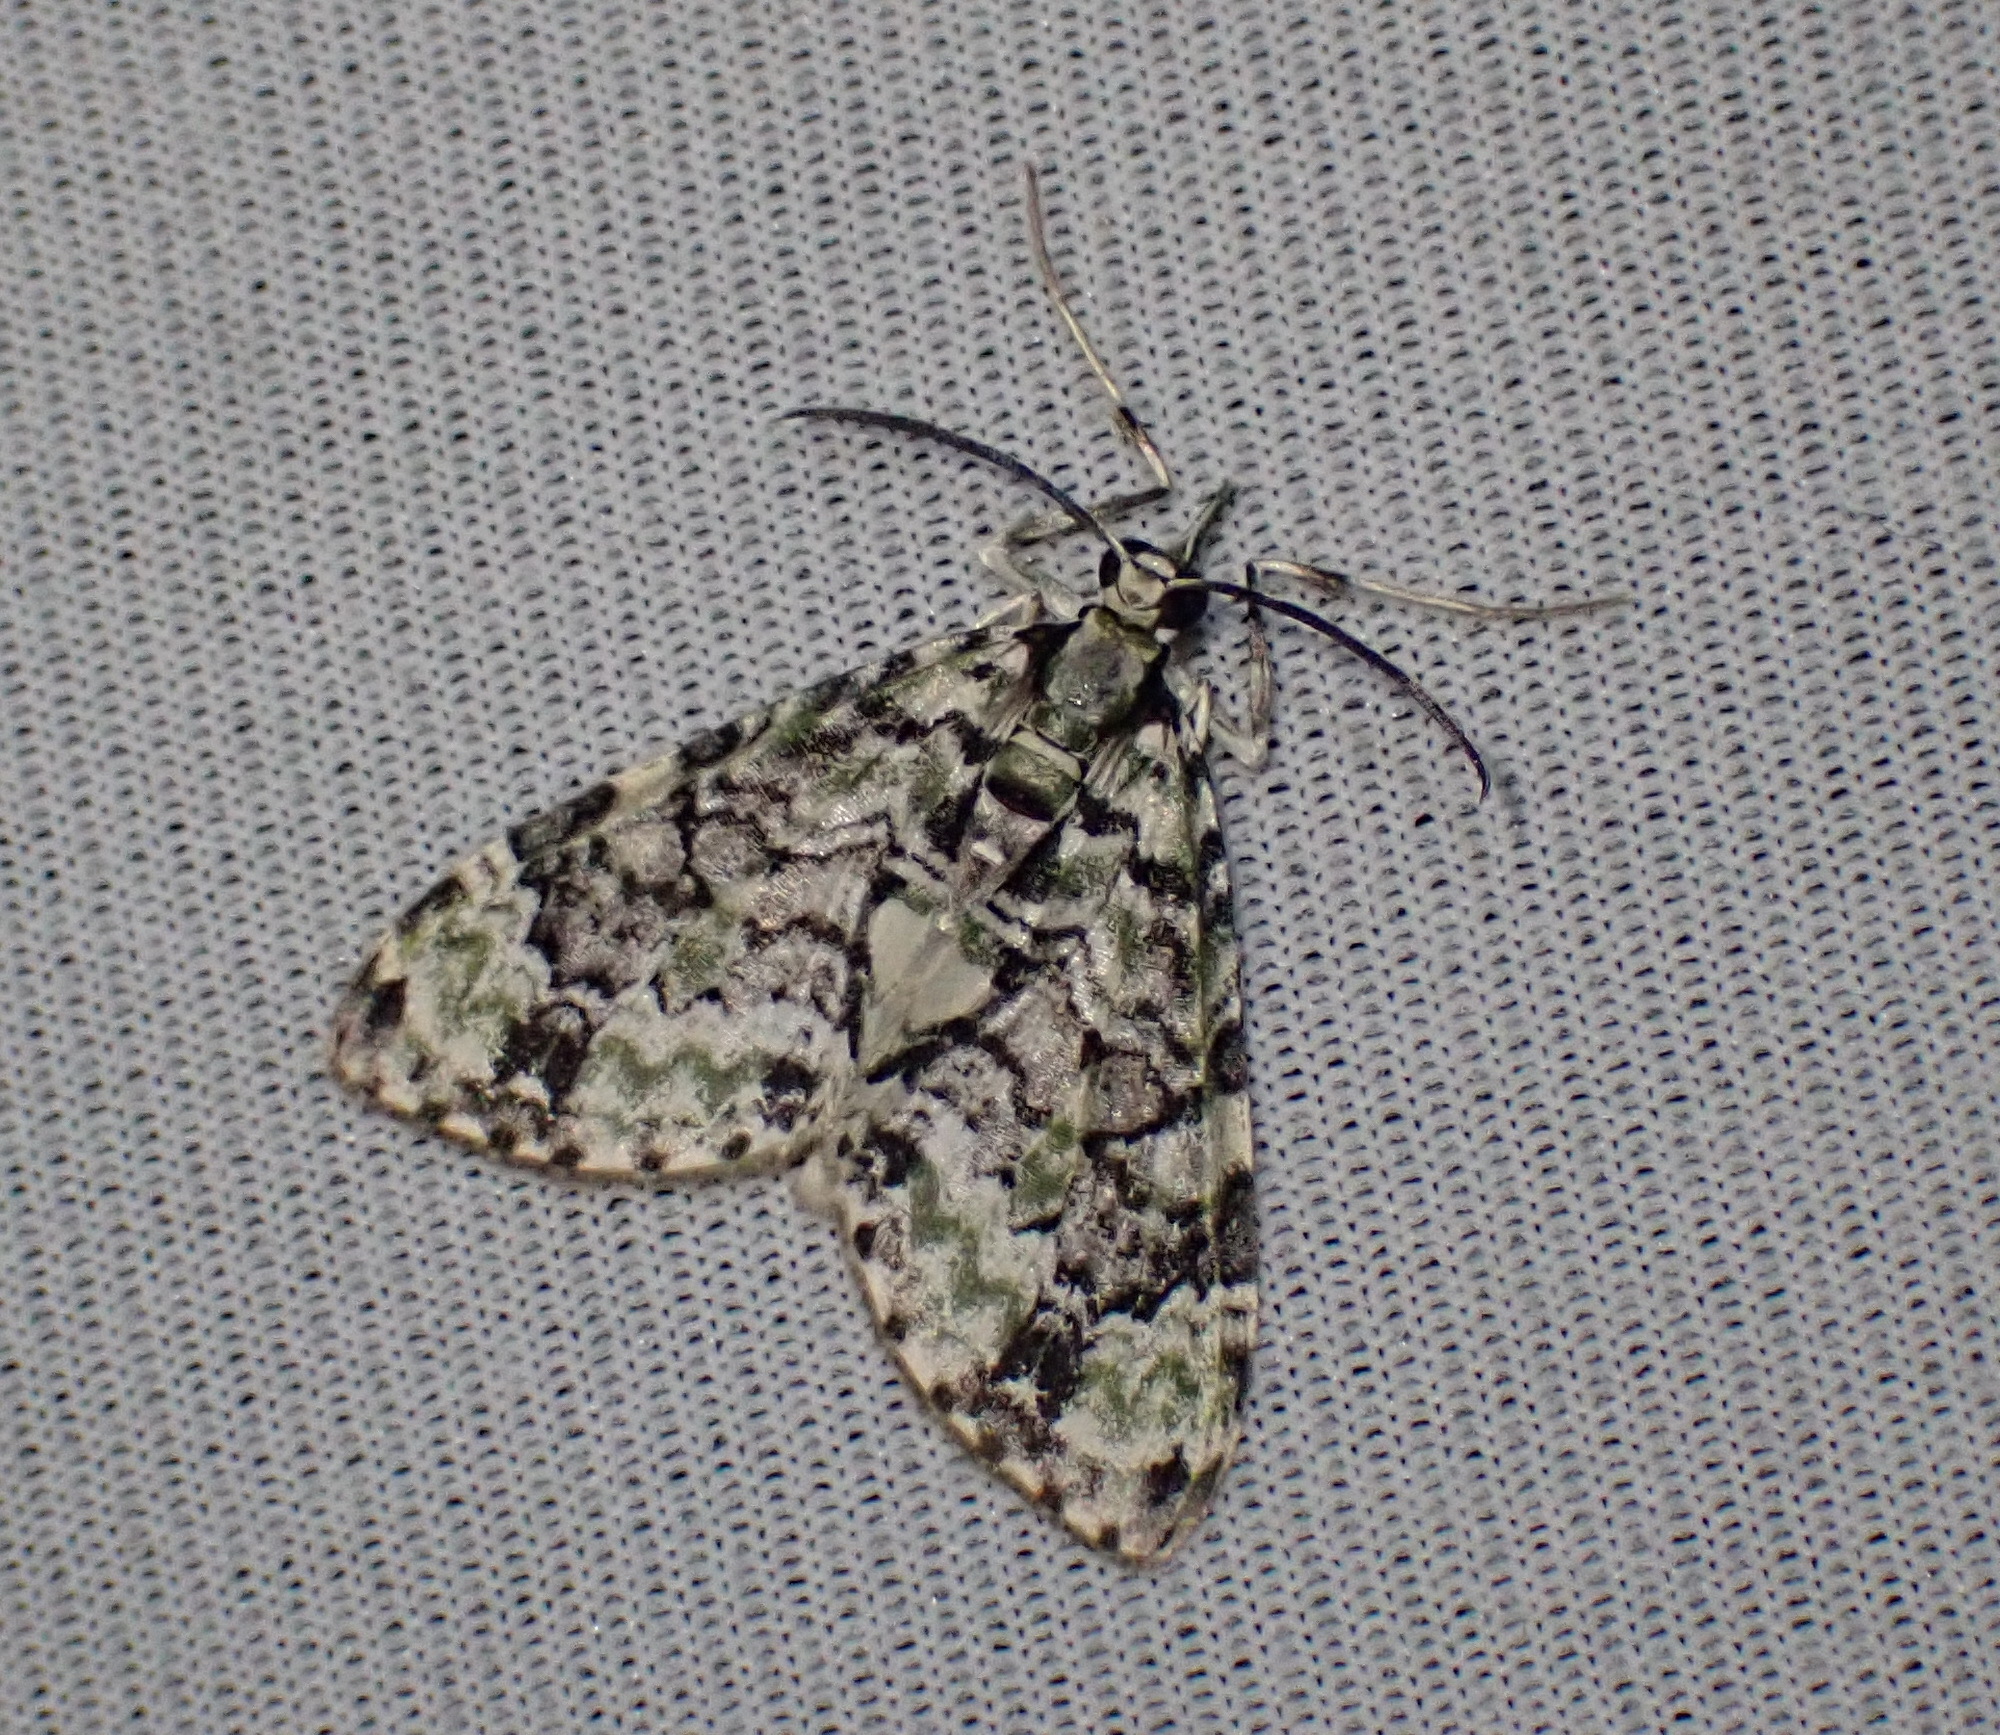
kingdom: Animalia
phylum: Arthropoda
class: Insecta
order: Lepidoptera
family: Geometridae
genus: Sauris
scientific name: Sauris lichenias
